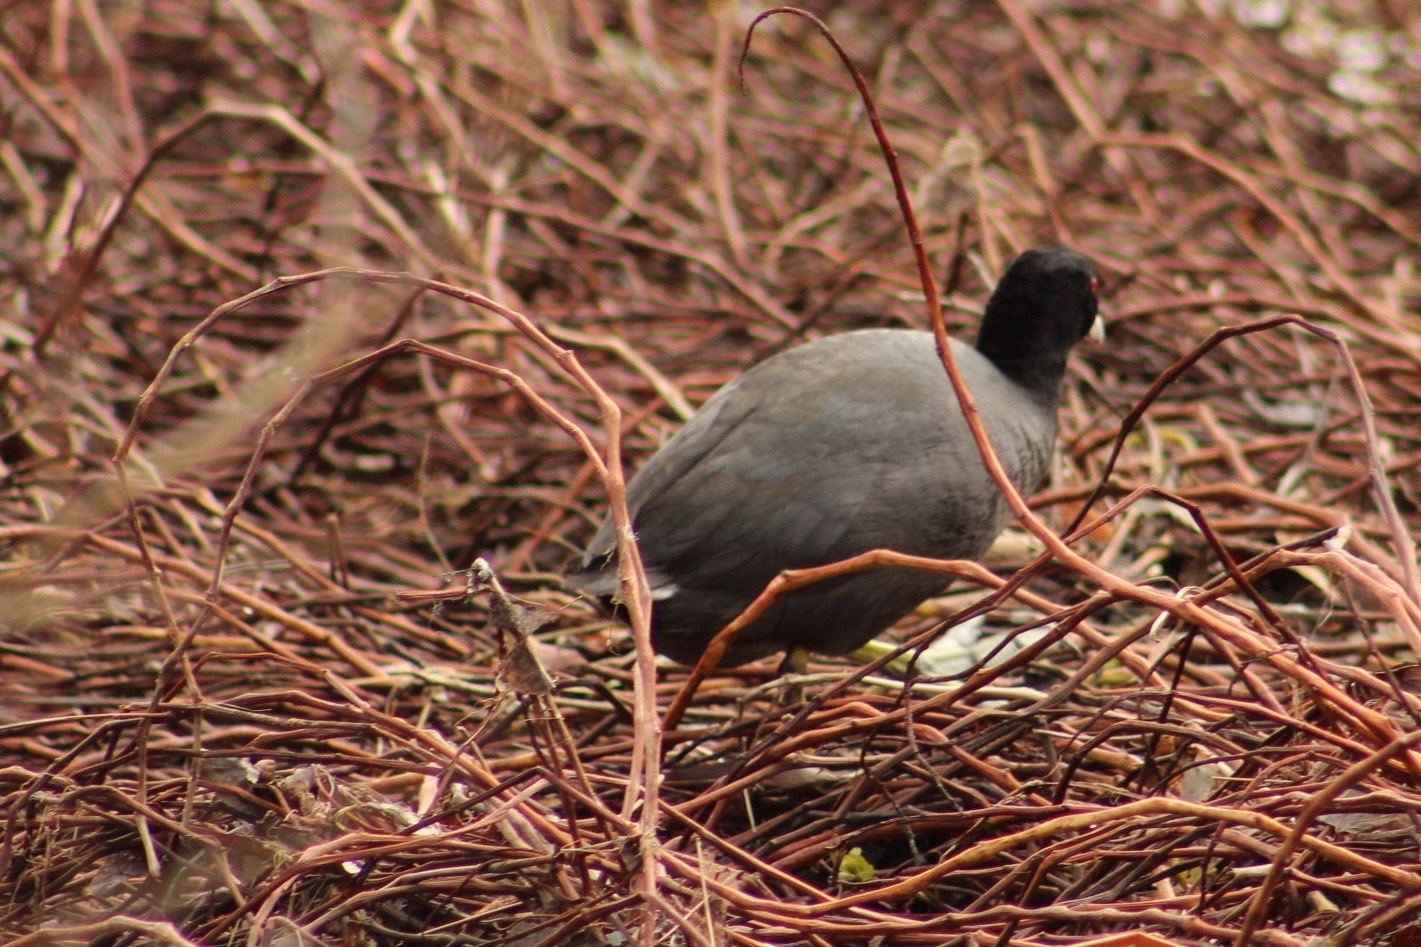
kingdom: Animalia
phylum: Chordata
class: Aves
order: Gruiformes
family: Rallidae
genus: Fulica
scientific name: Fulica americana
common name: American coot
